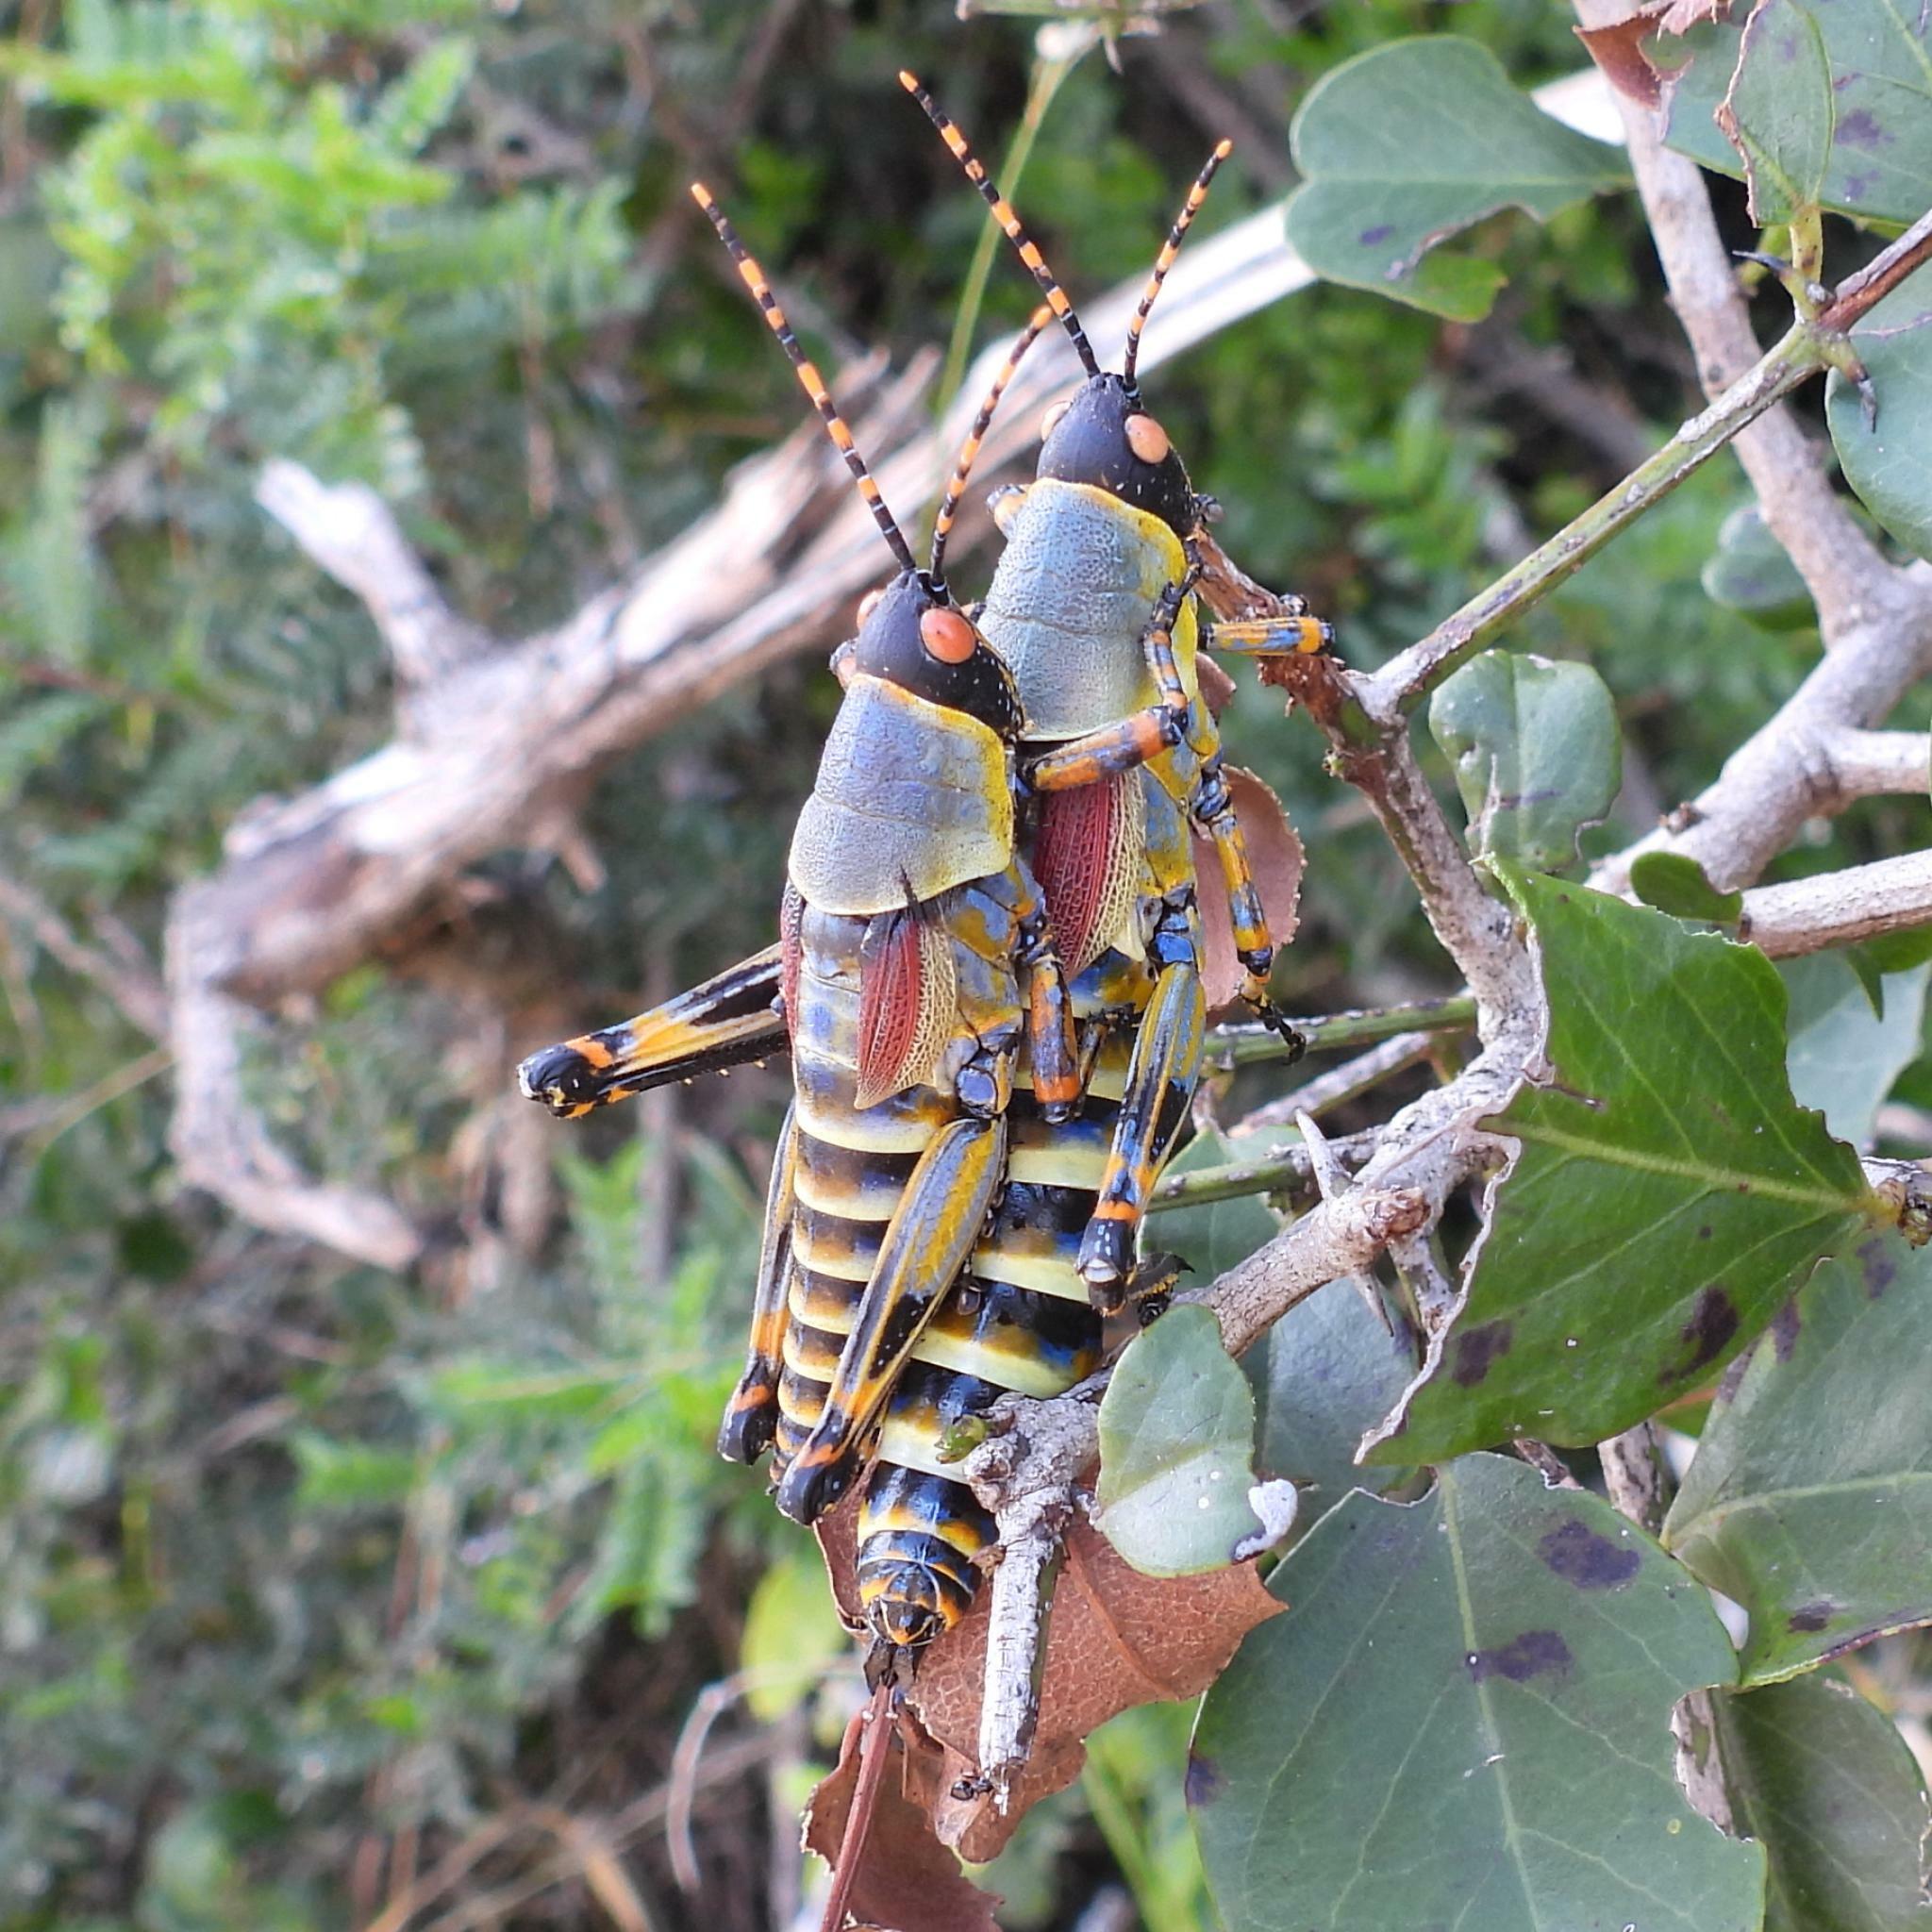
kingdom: Animalia
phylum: Arthropoda
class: Insecta
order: Orthoptera
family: Pyrgomorphidae
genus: Zonocerus
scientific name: Zonocerus elegans
